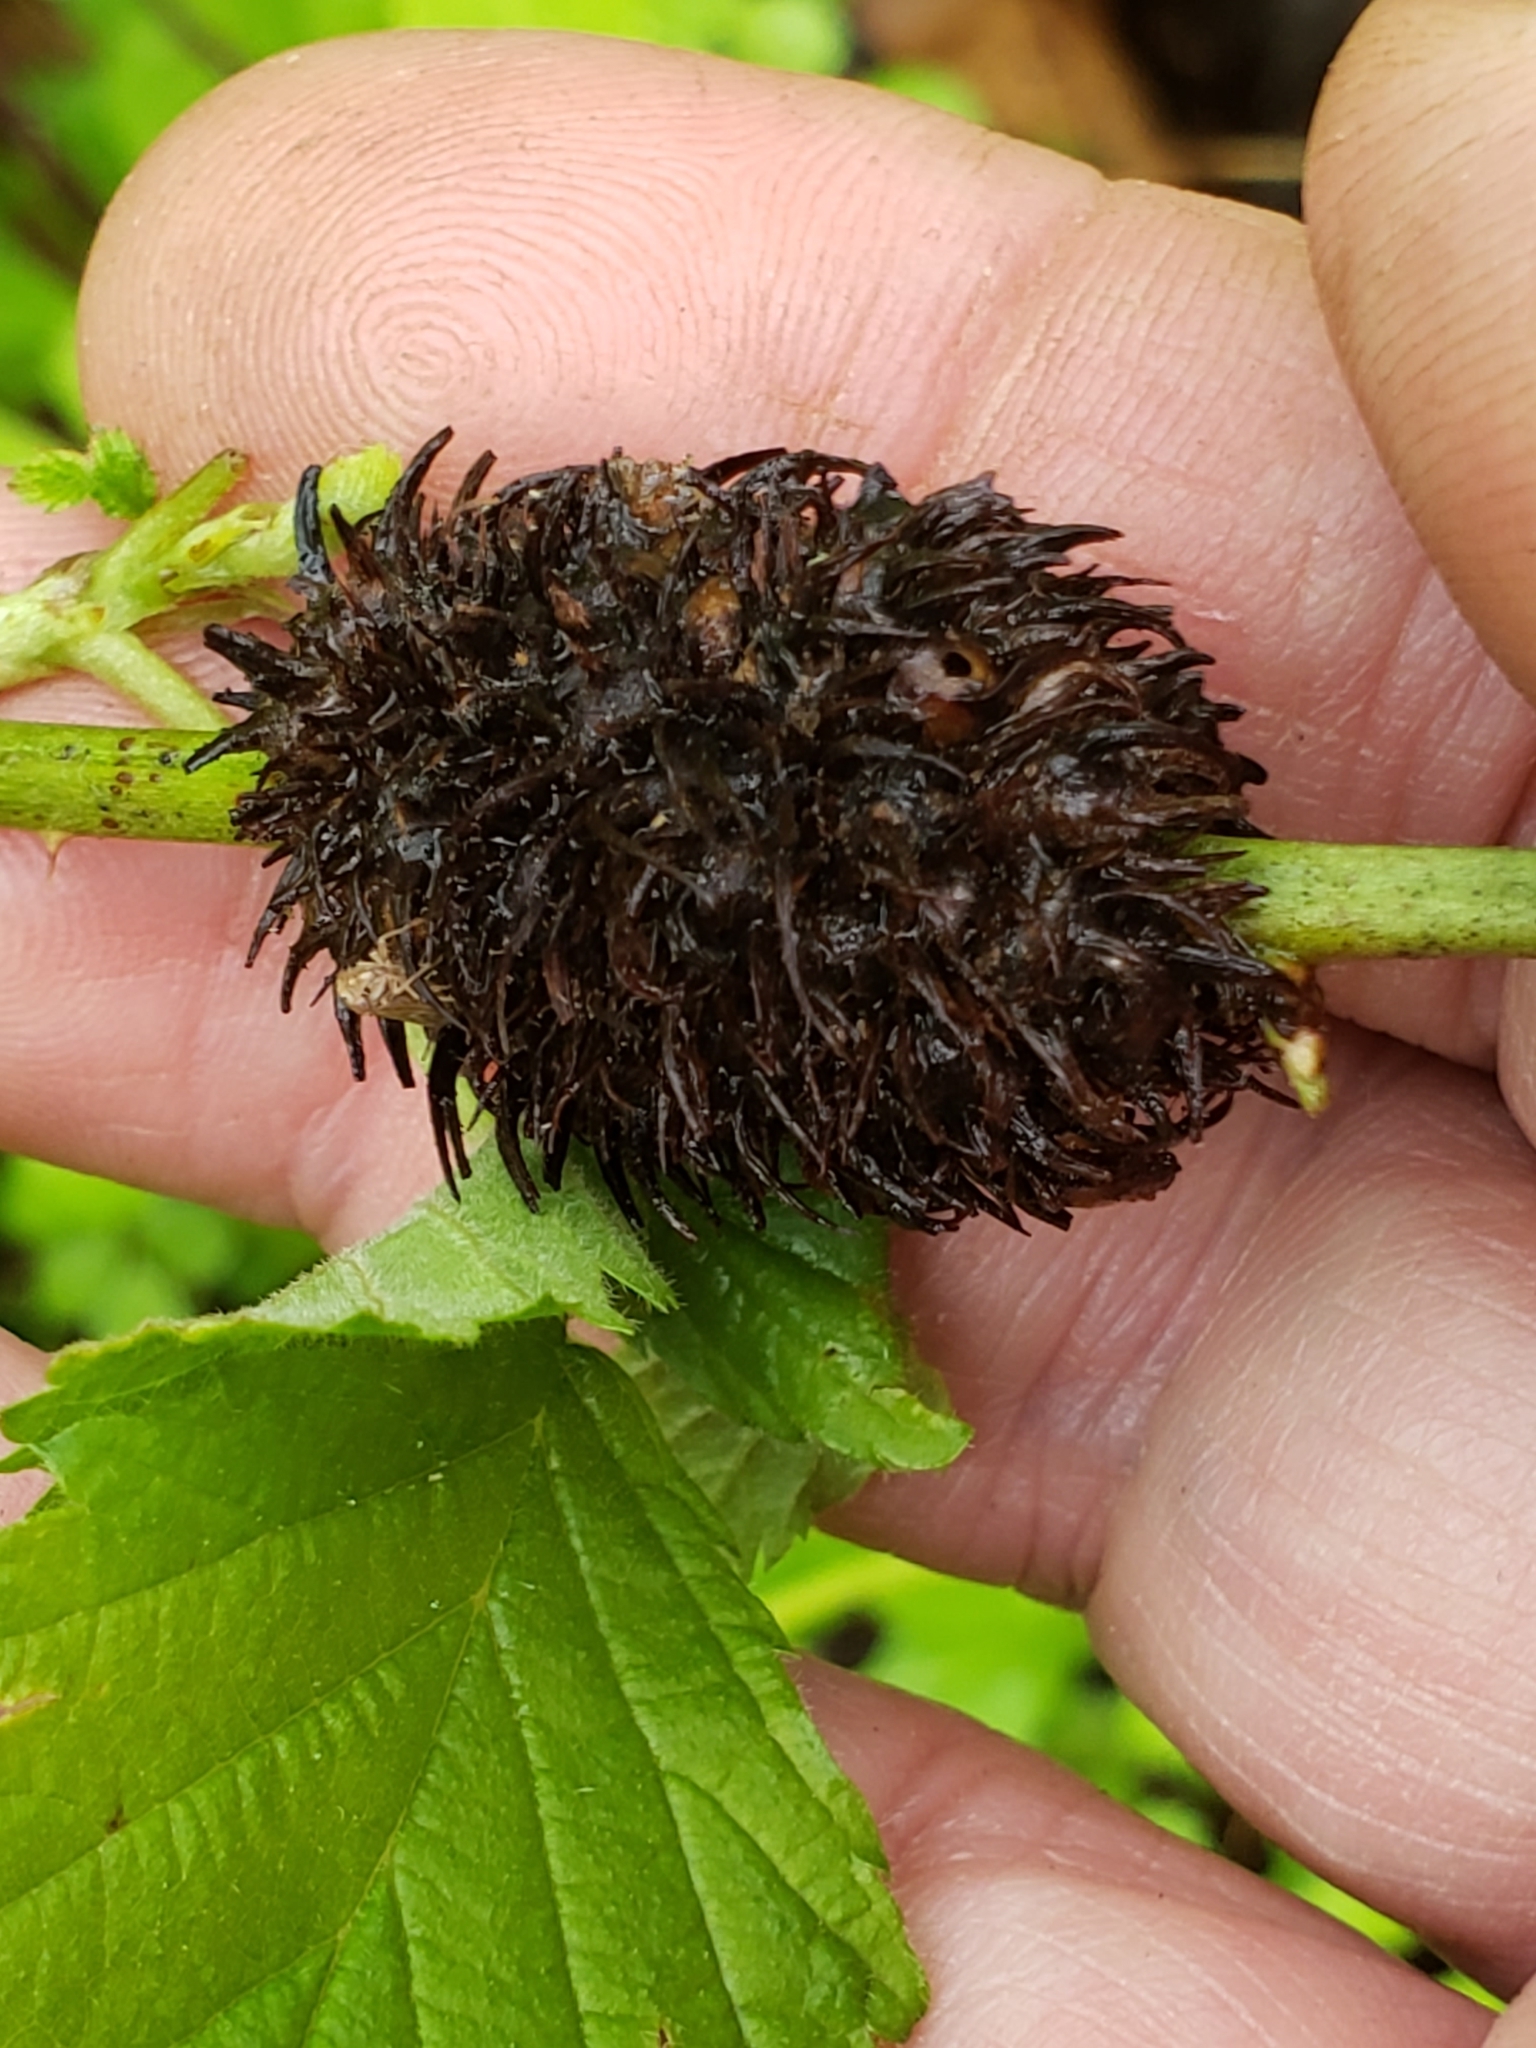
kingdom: Animalia
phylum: Arthropoda
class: Insecta
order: Hymenoptera
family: Cynipidae
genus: Diastrophus
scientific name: Diastrophus
